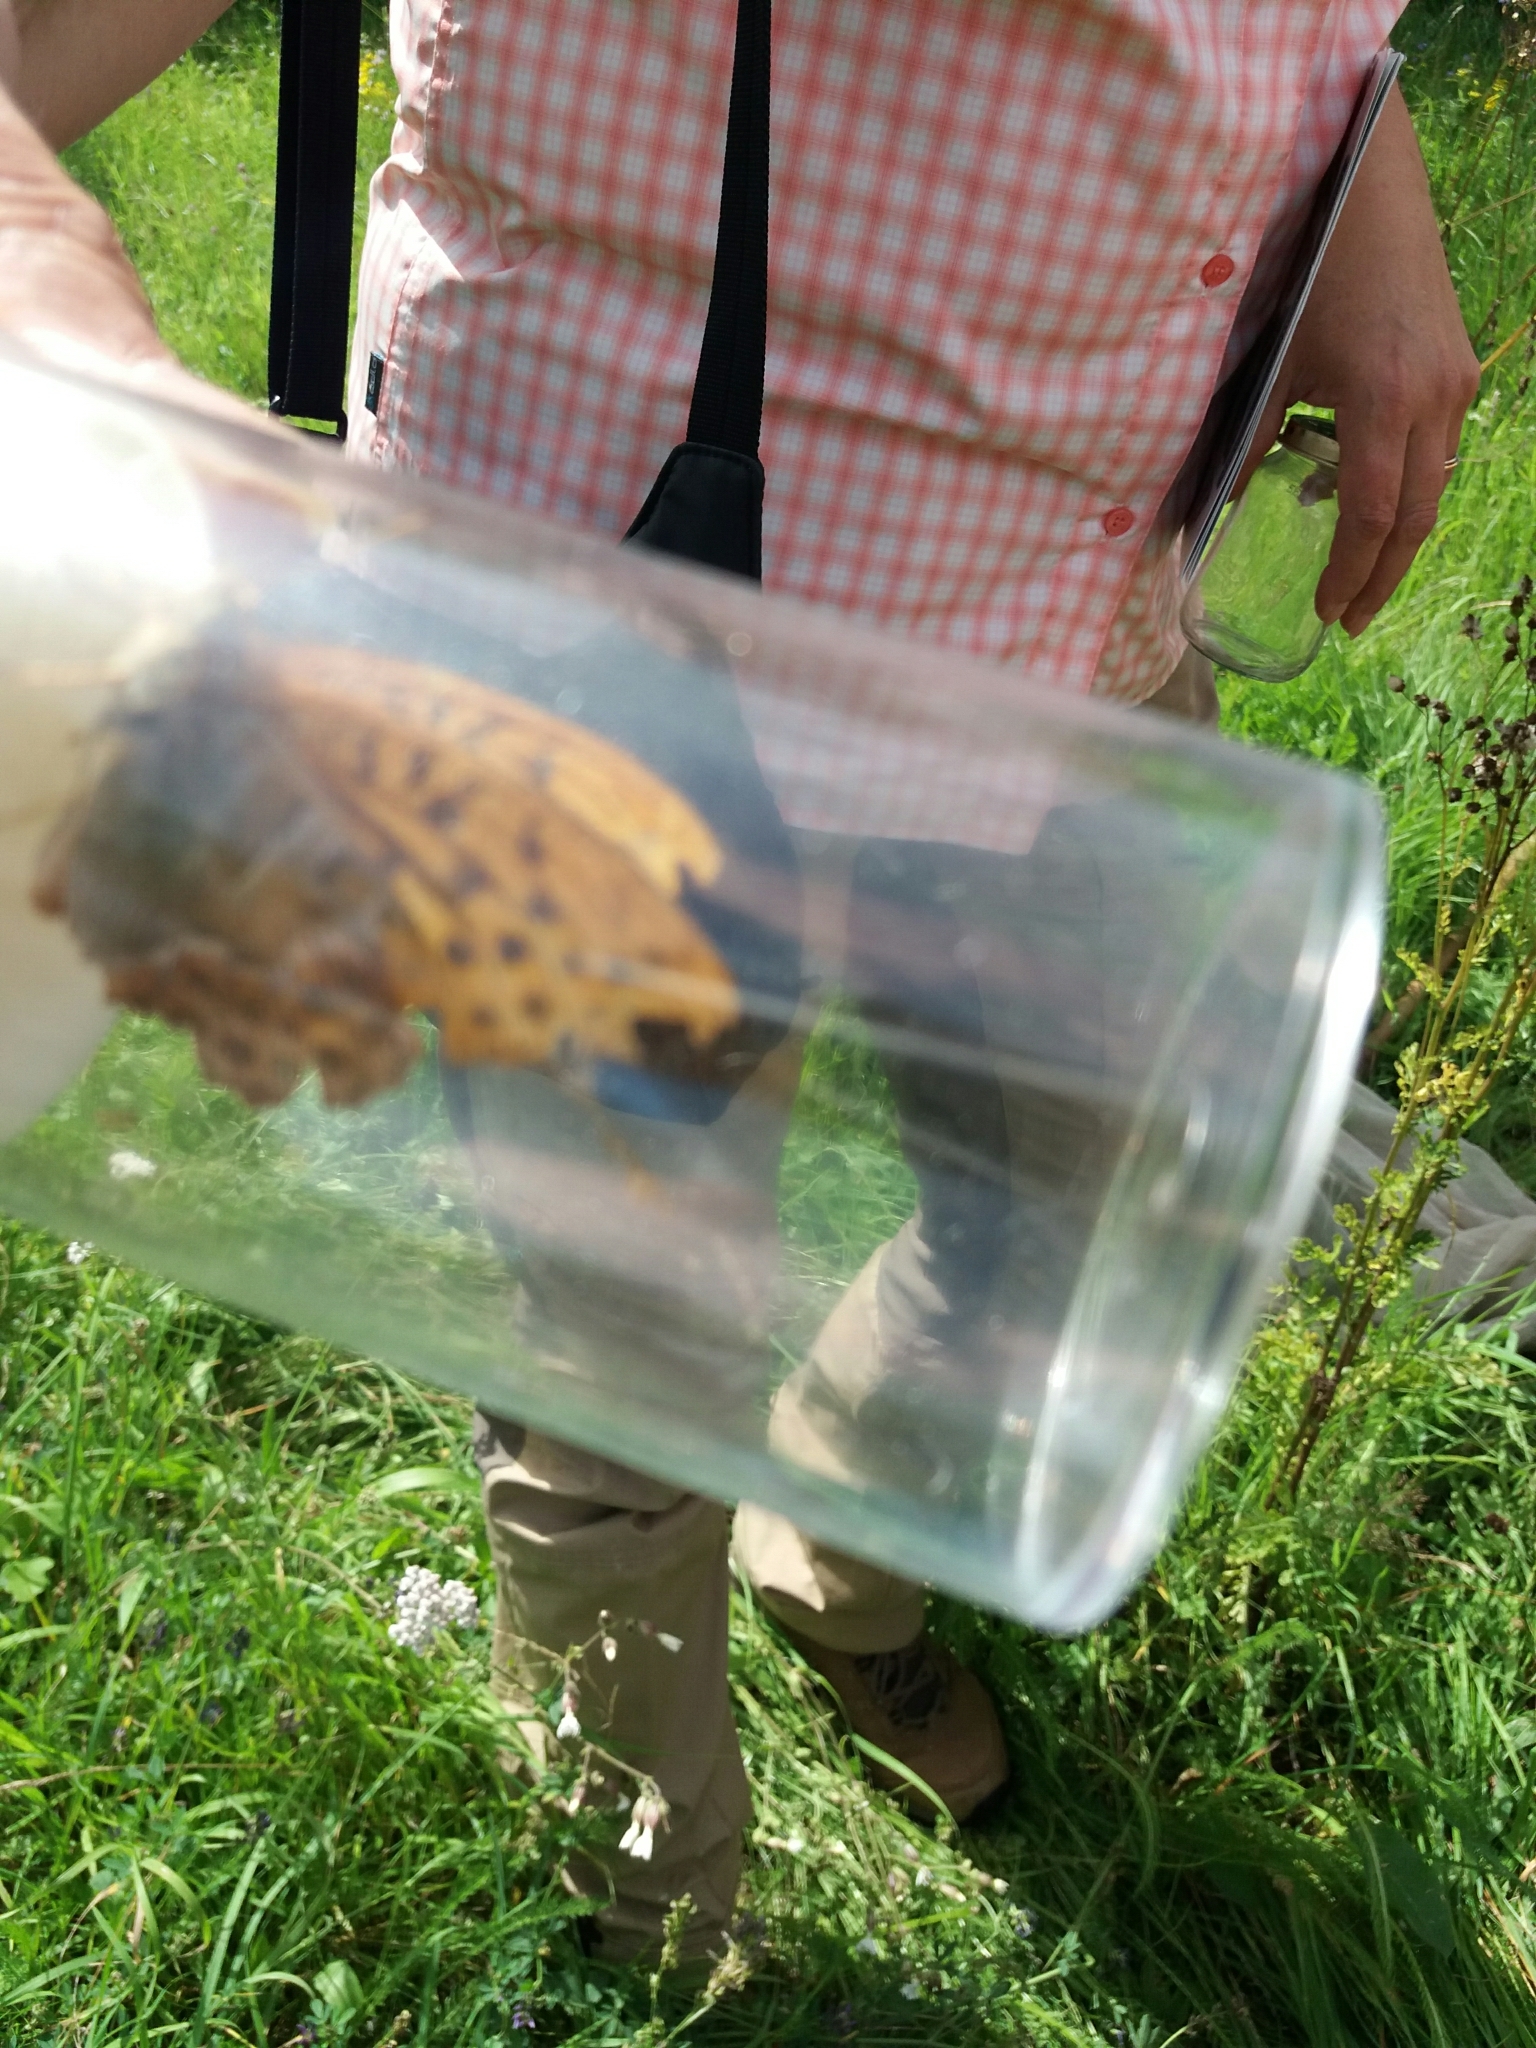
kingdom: Animalia
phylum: Arthropoda
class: Insecta
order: Lepidoptera
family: Nymphalidae
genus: Argynnis
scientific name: Argynnis paphia
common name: Silver-washed fritillary
